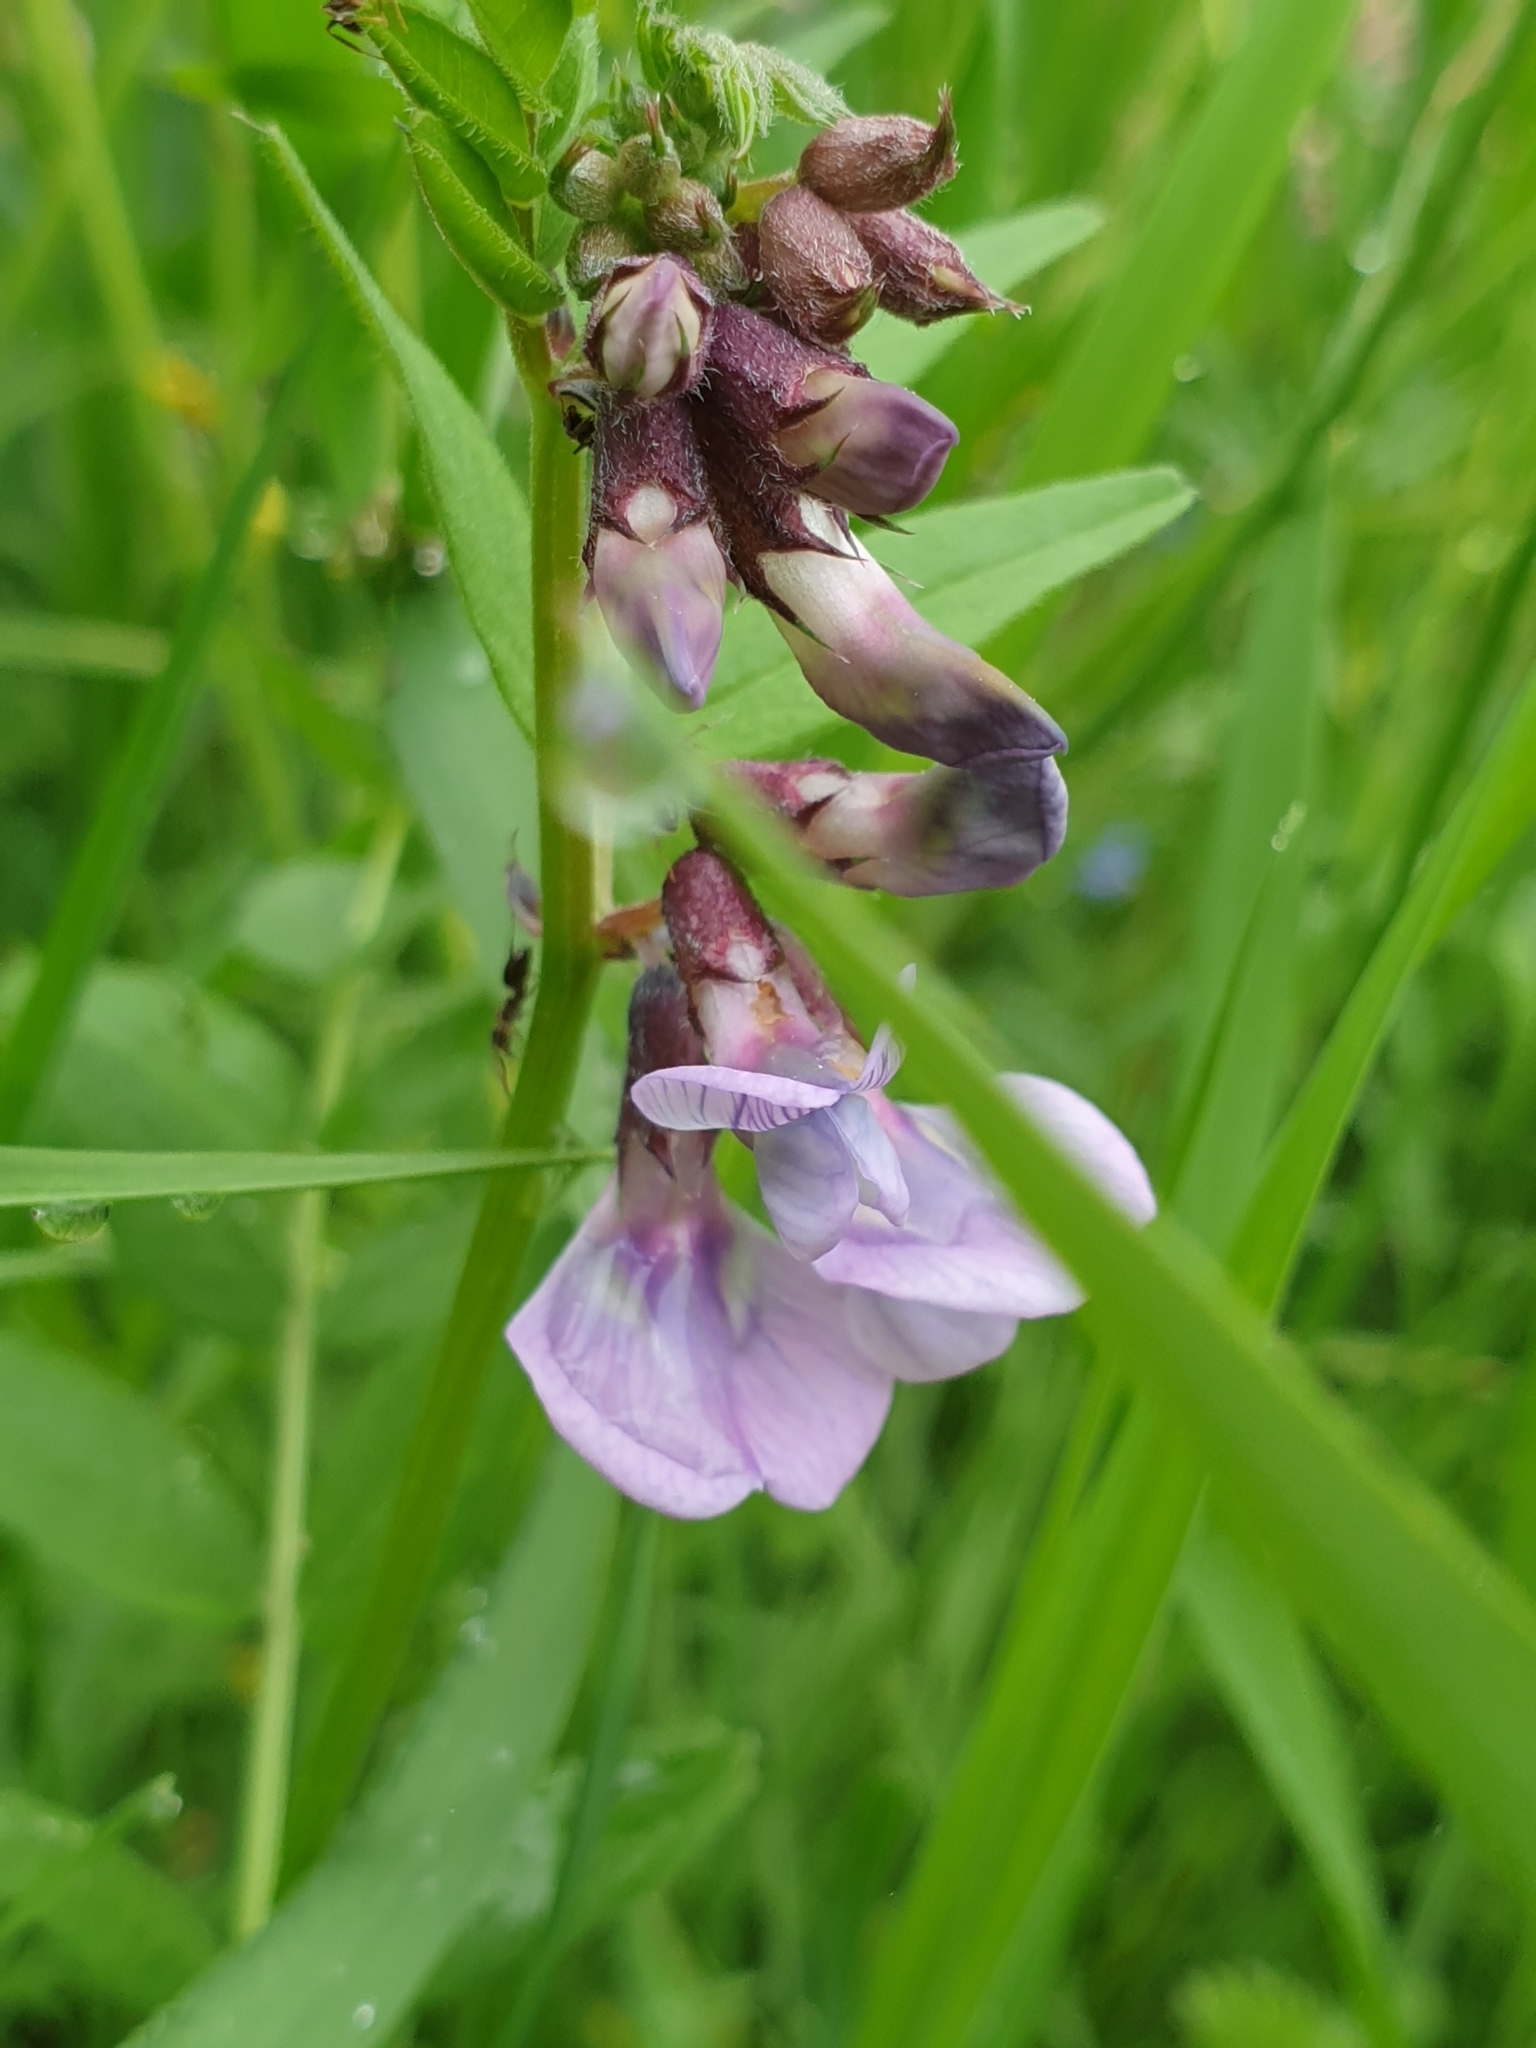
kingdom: Plantae
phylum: Tracheophyta
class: Magnoliopsida
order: Fabales
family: Fabaceae
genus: Vicia
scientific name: Vicia sepium
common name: Bush vetch
